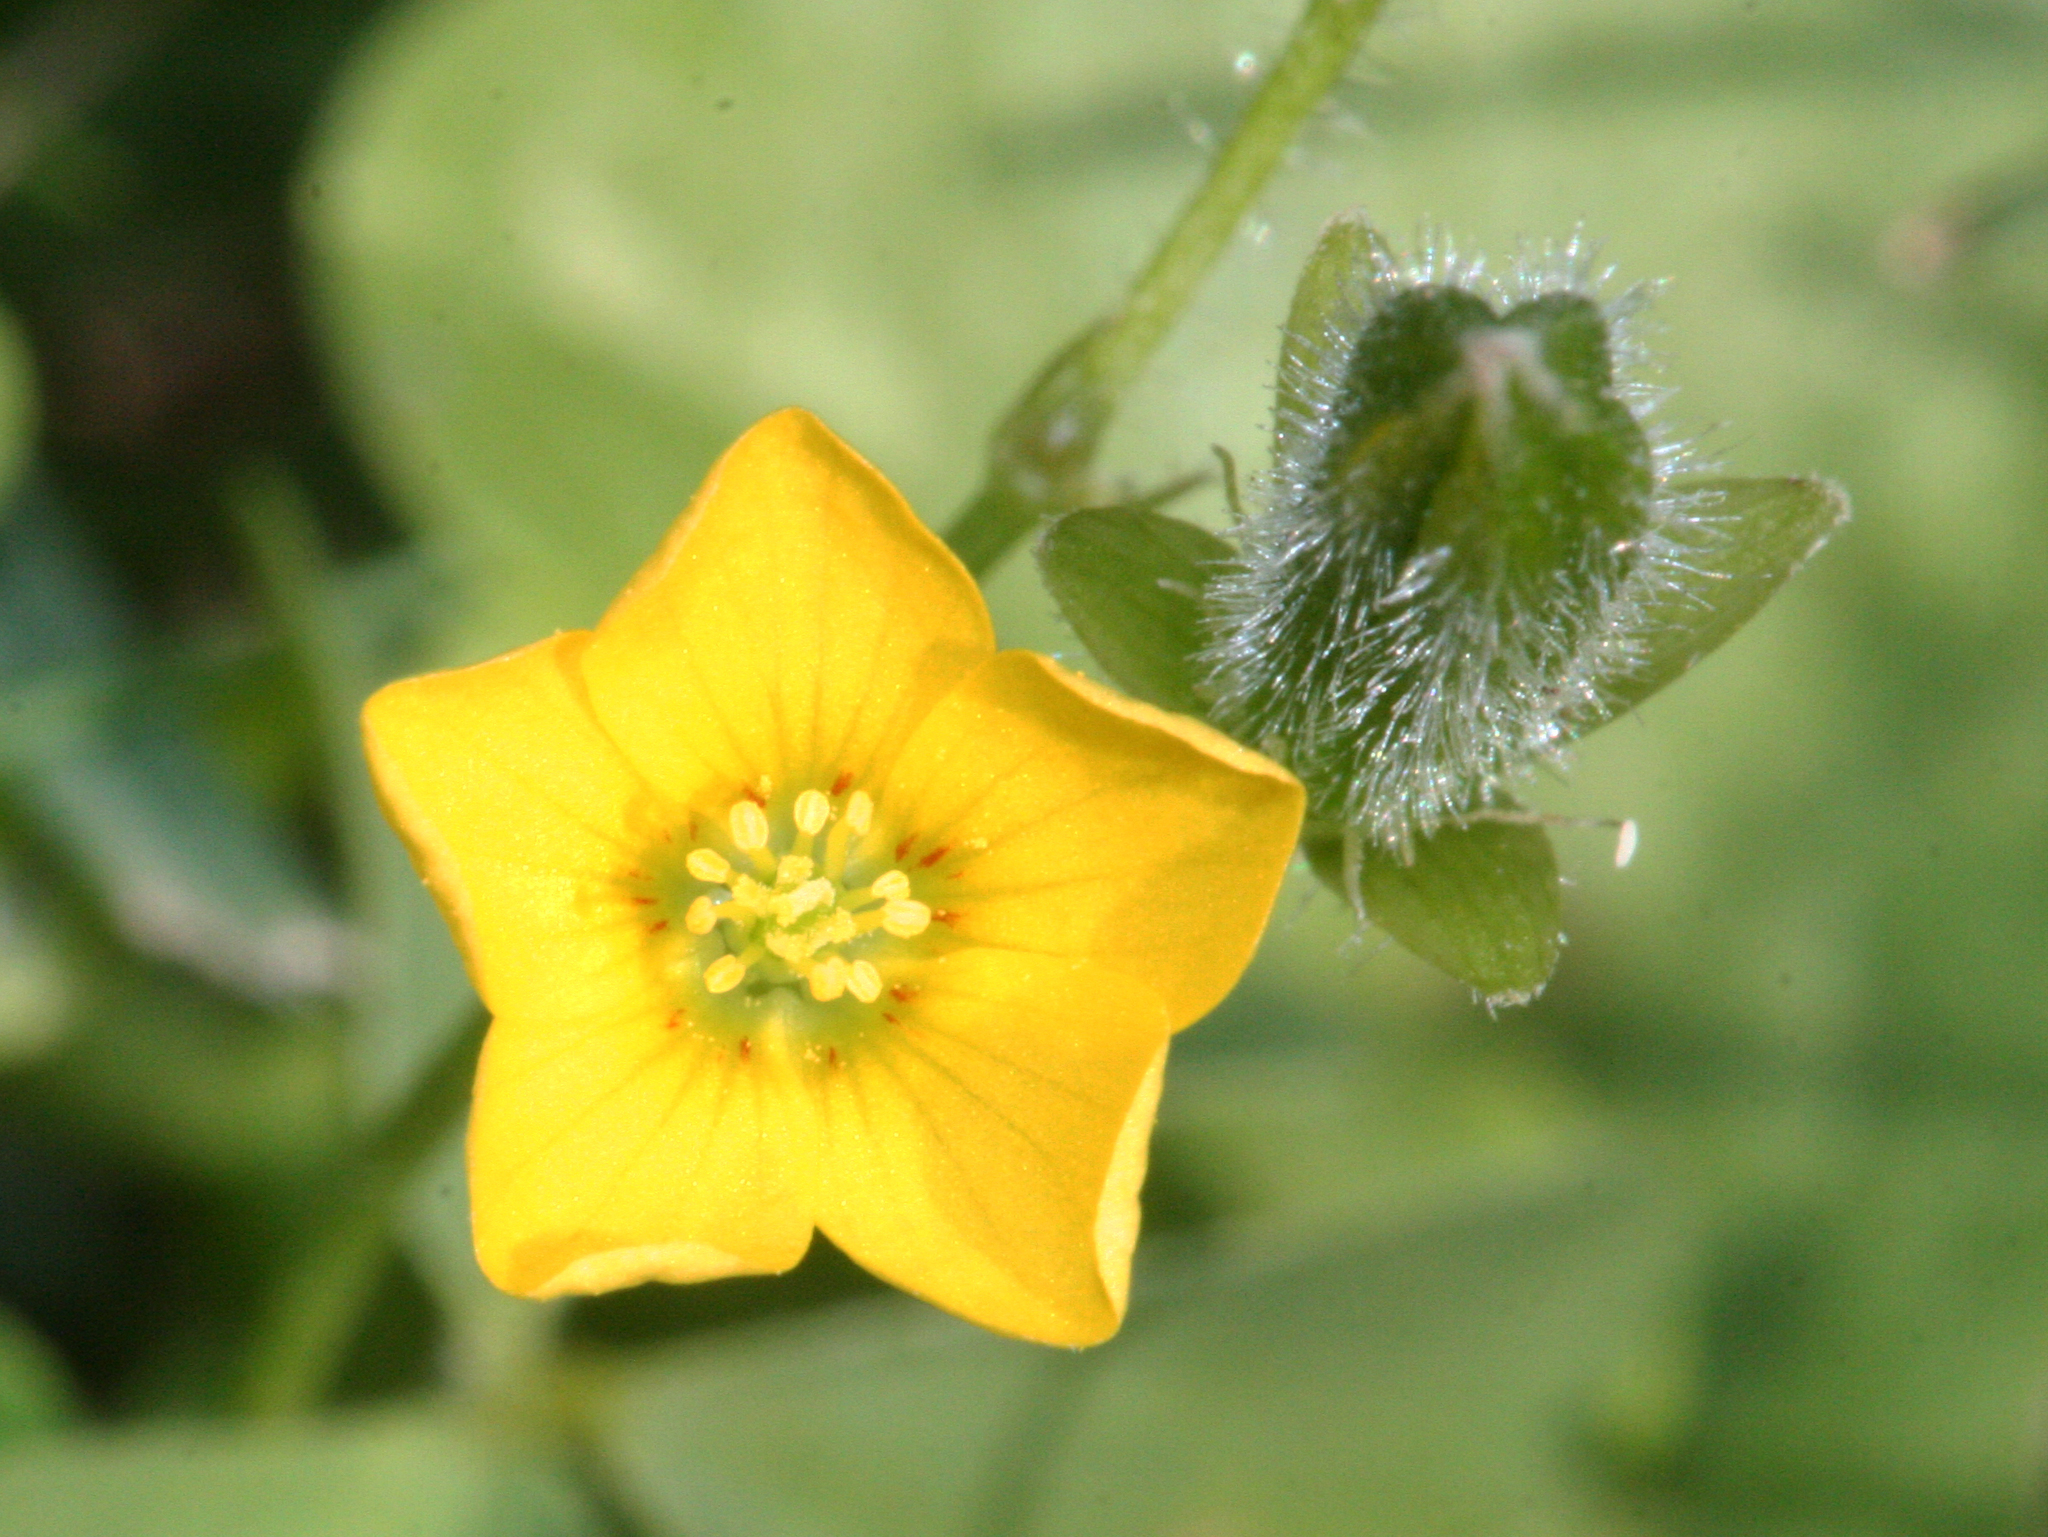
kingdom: Plantae
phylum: Tracheophyta
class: Magnoliopsida
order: Oxalidales
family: Oxalidaceae
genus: Oxalis
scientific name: Oxalis stricta
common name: Upright yellow-sorrel
